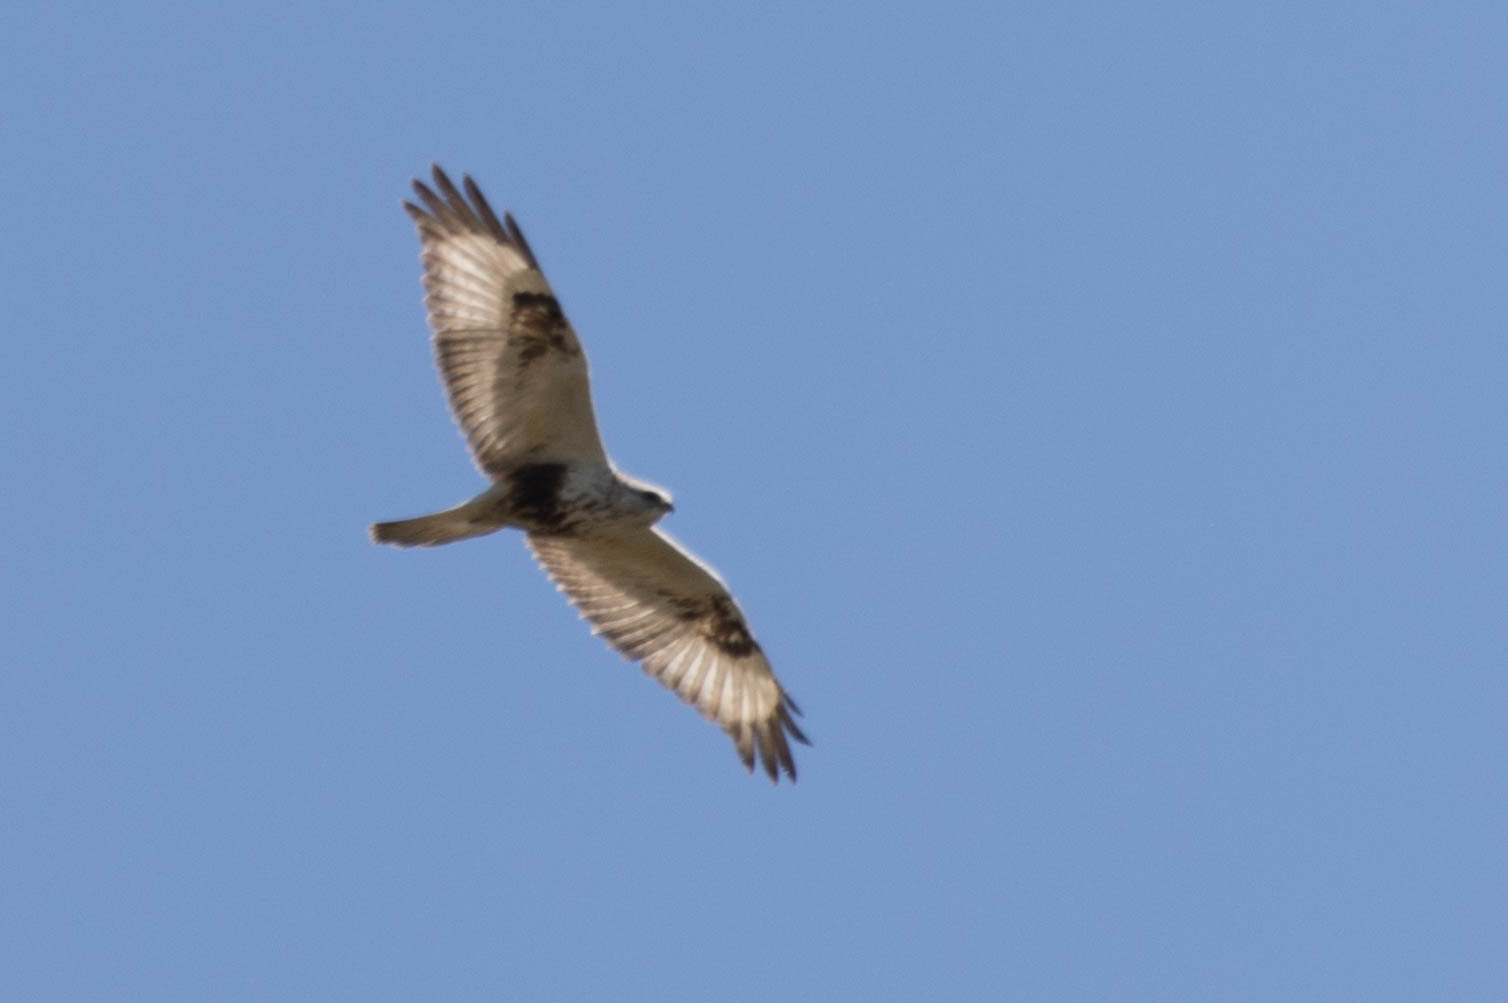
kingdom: Animalia
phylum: Chordata
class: Aves
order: Accipitriformes
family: Accipitridae
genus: Buteo
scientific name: Buteo lagopus
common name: Rough-legged buzzard
